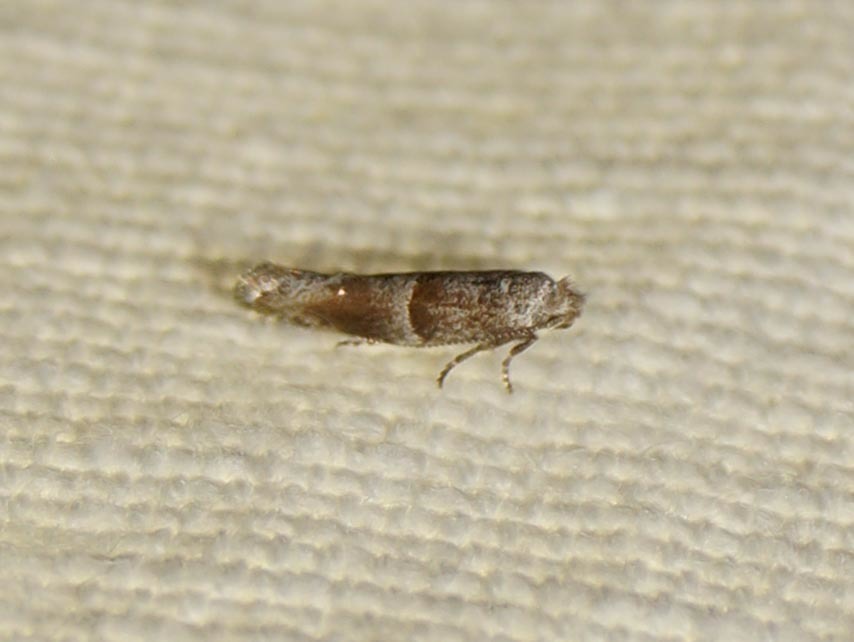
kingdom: Animalia
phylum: Arthropoda
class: Insecta
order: Lepidoptera
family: Yponomeutidae
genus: Cedestis
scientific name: Cedestis subfasciella
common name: Brown pine ermel
